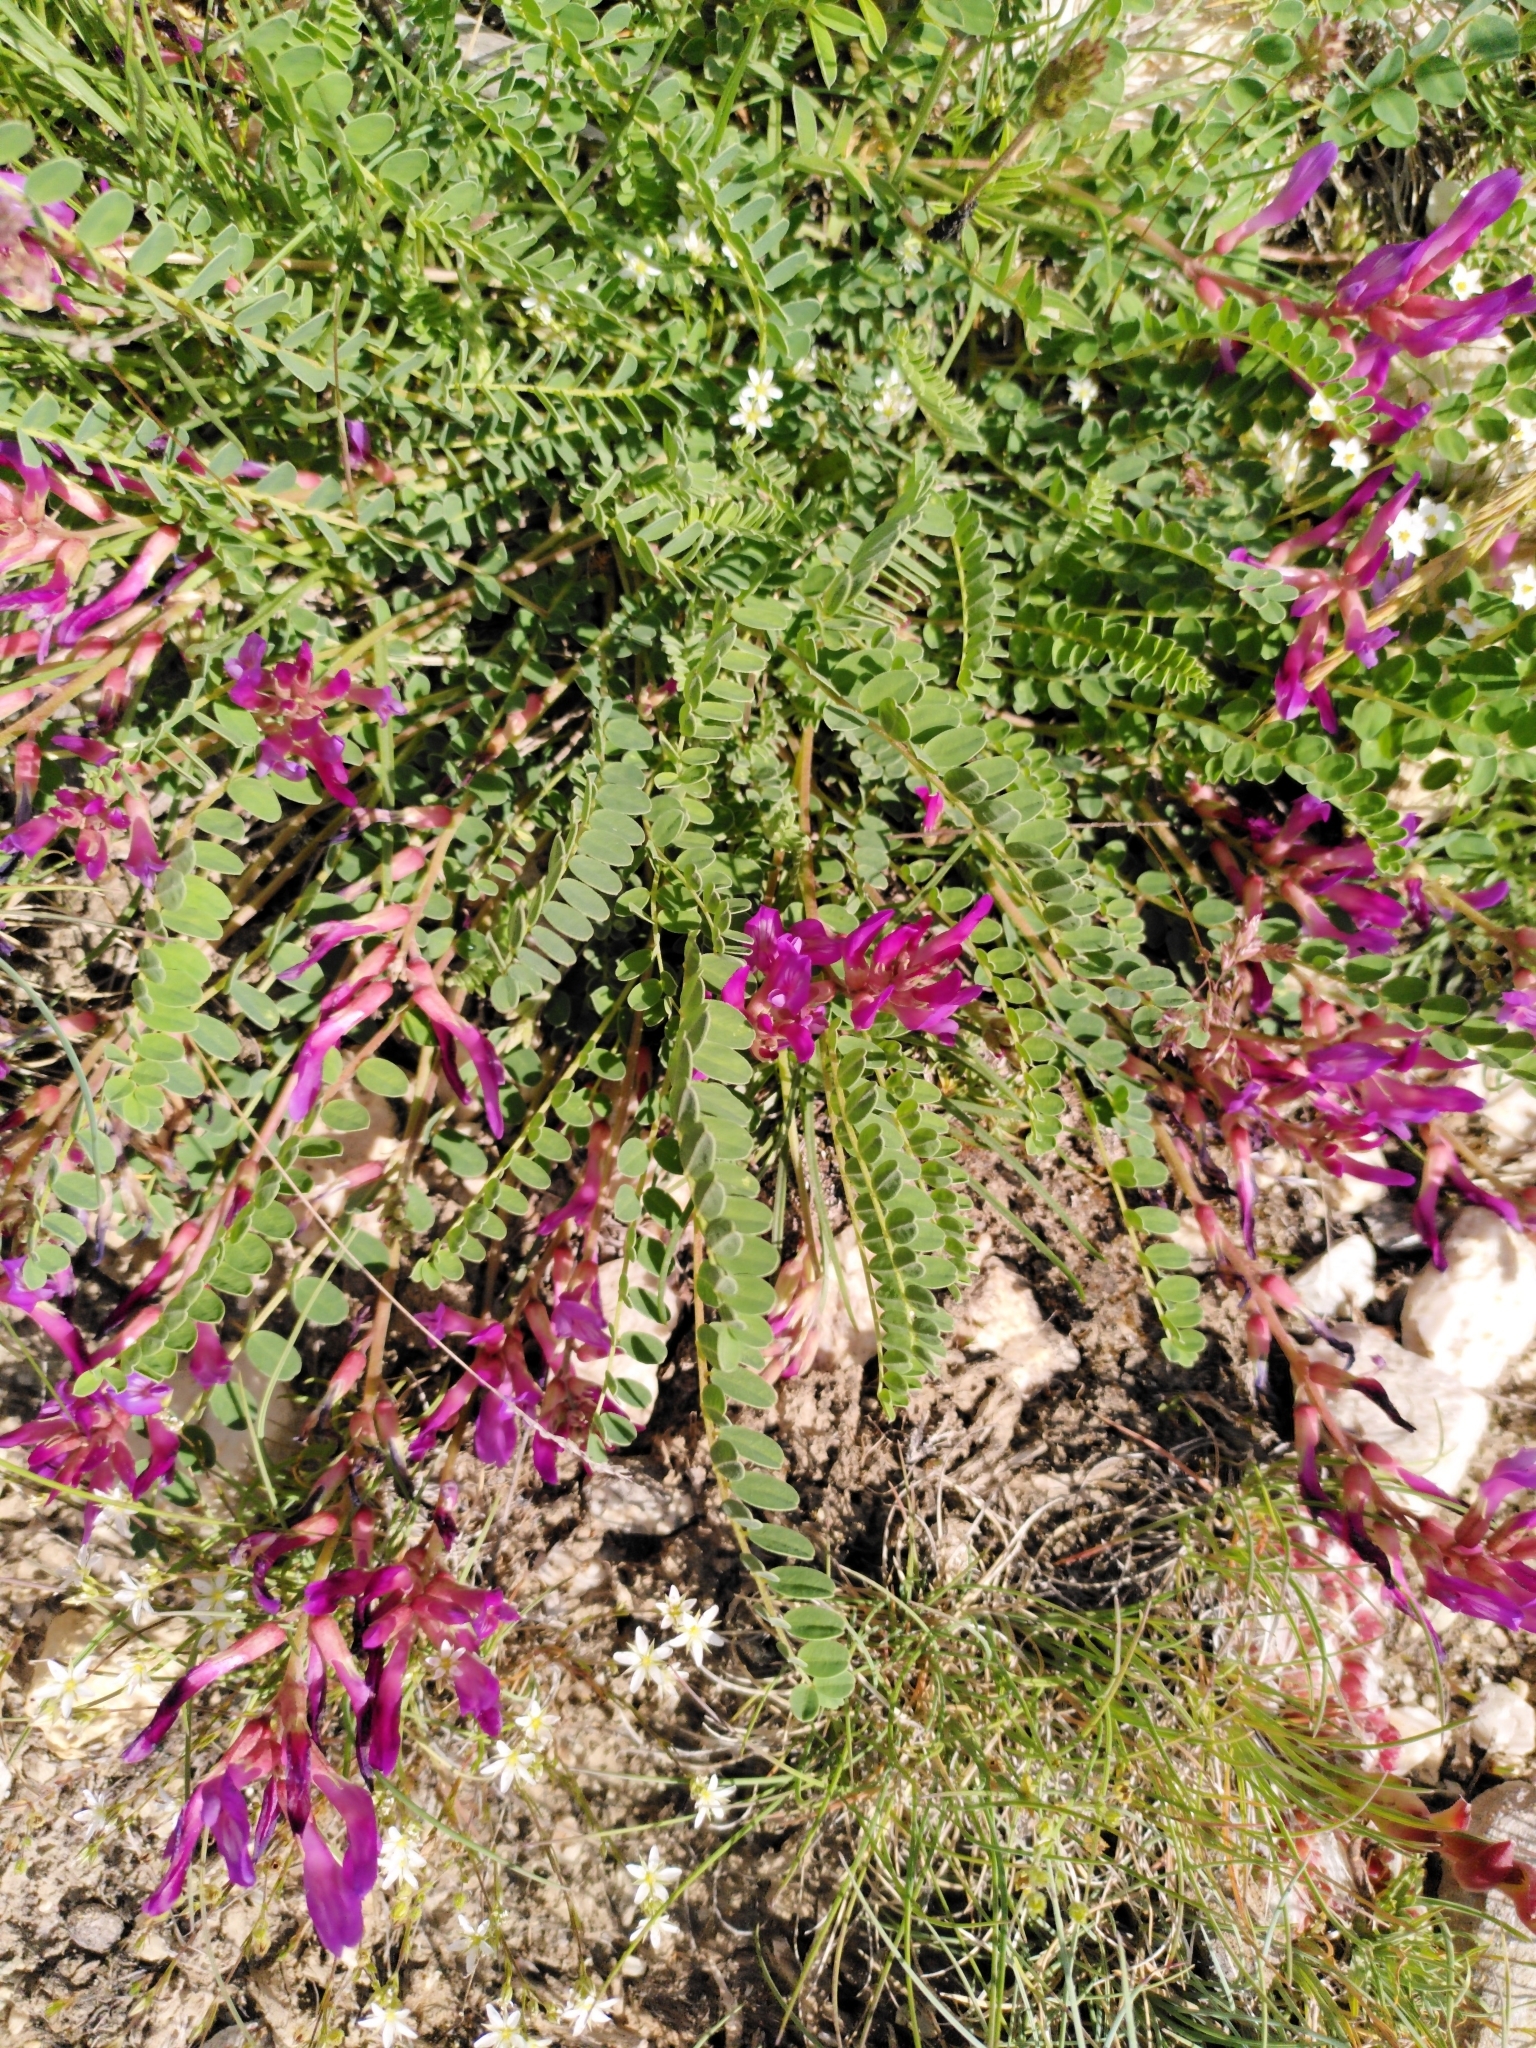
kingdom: Plantae
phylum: Tracheophyta
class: Magnoliopsida
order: Fabales
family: Fabaceae
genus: Astragalus
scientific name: Astragalus monspessulanus
